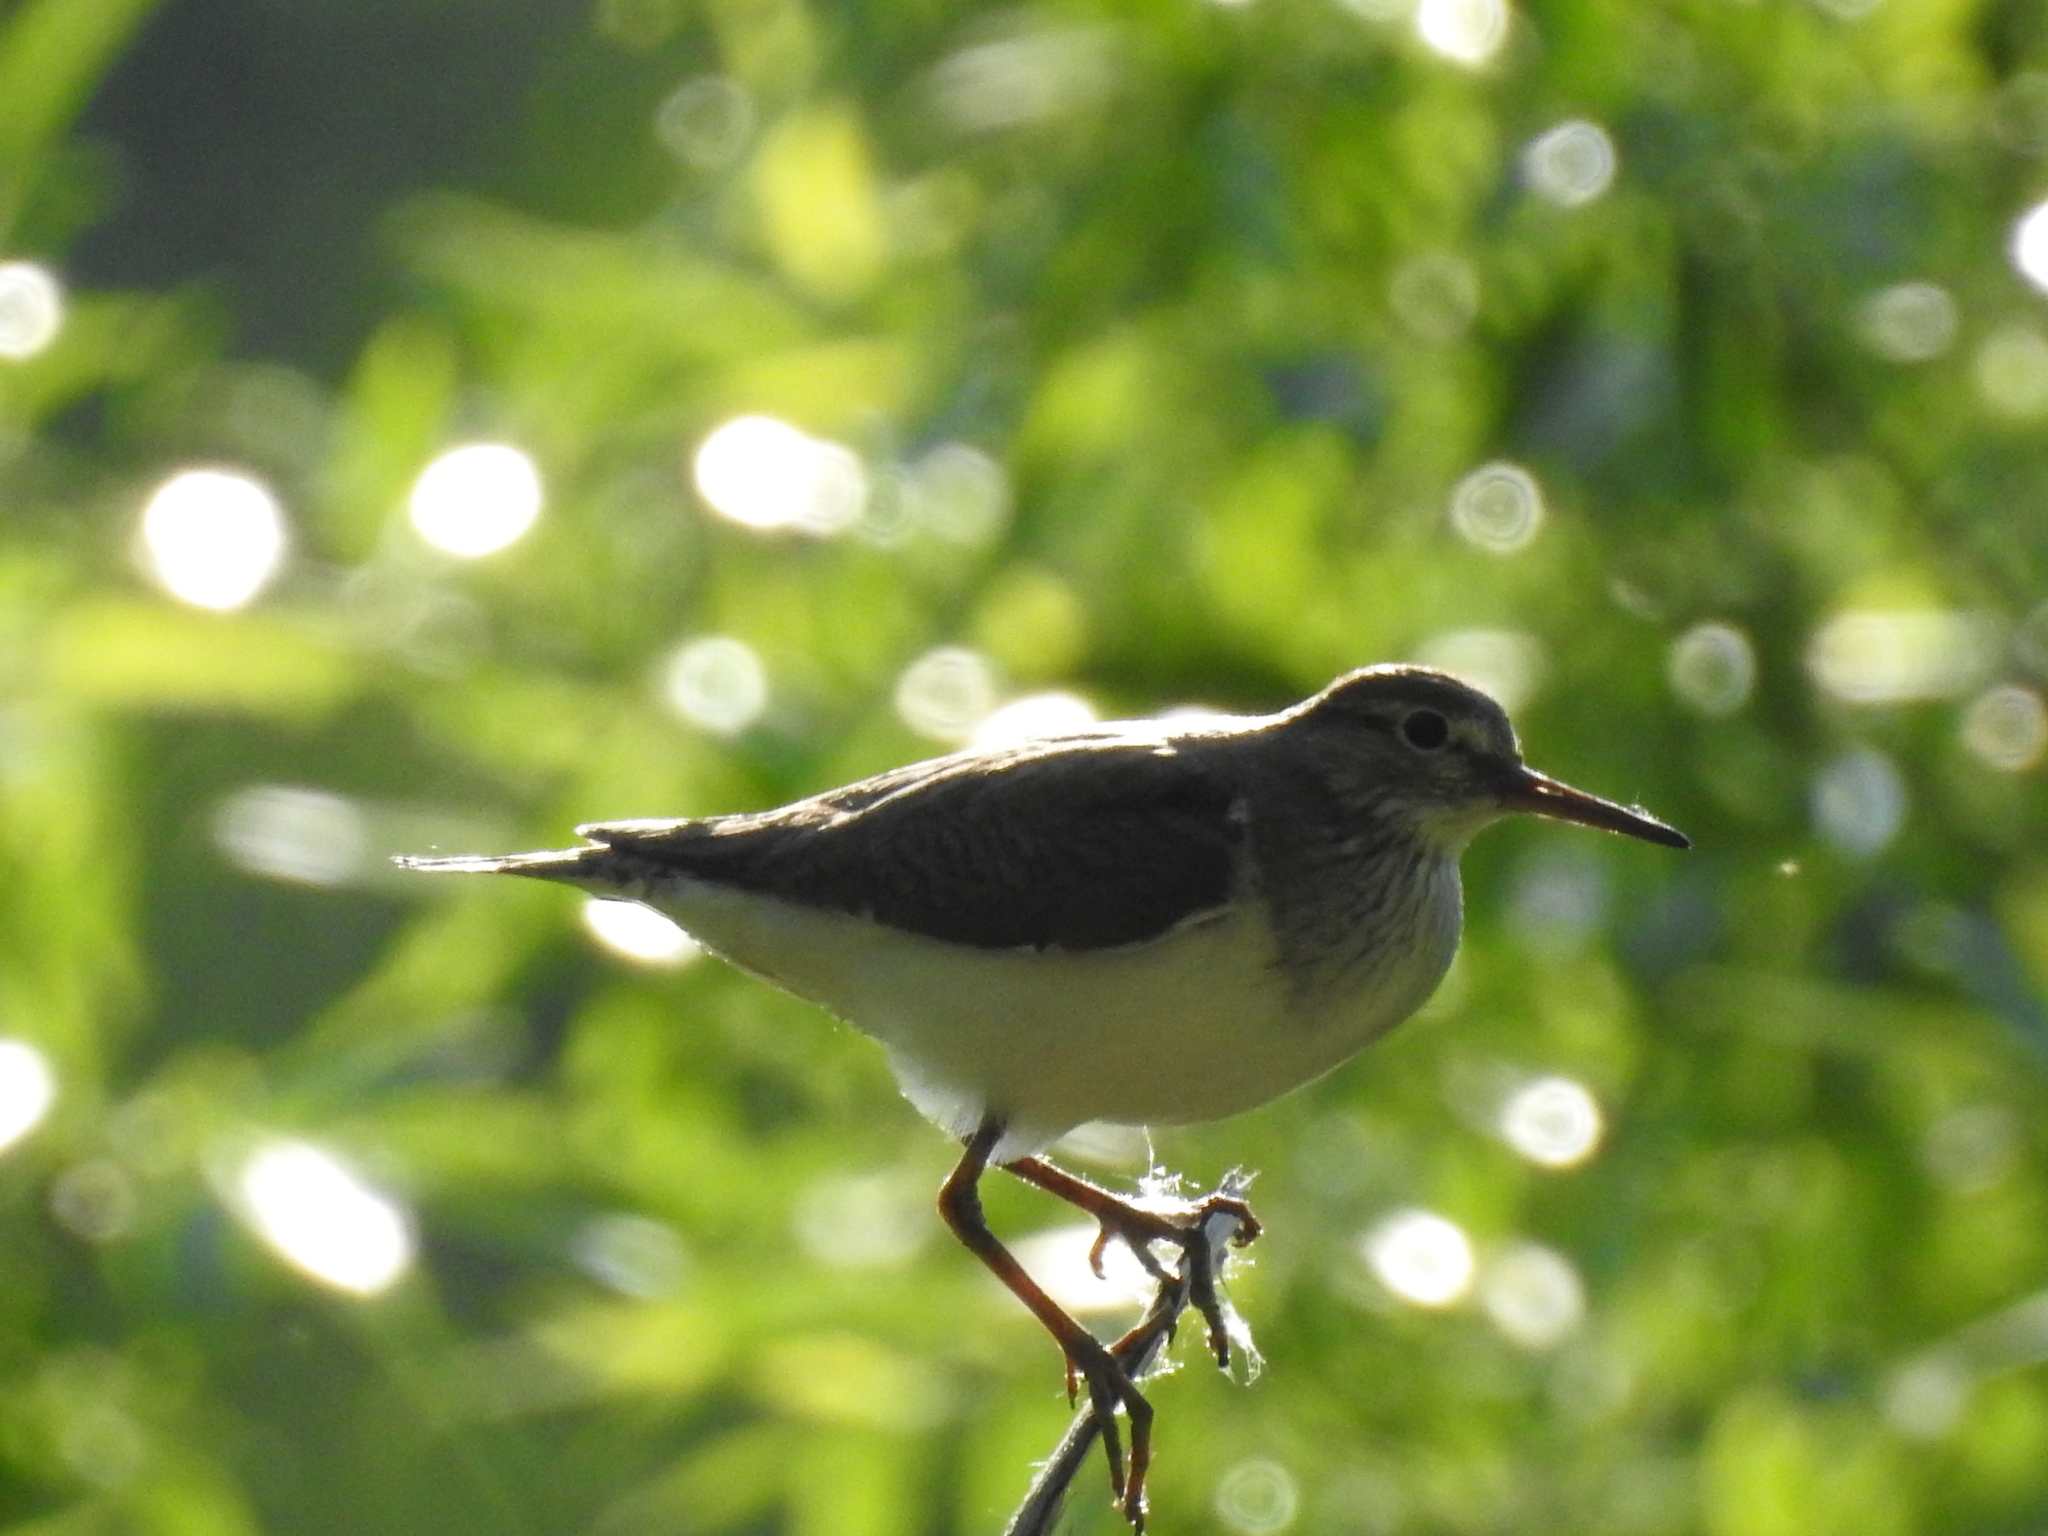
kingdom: Animalia
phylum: Chordata
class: Aves
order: Charadriiformes
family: Scolopacidae
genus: Actitis
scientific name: Actitis hypoleucos
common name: Common sandpiper
